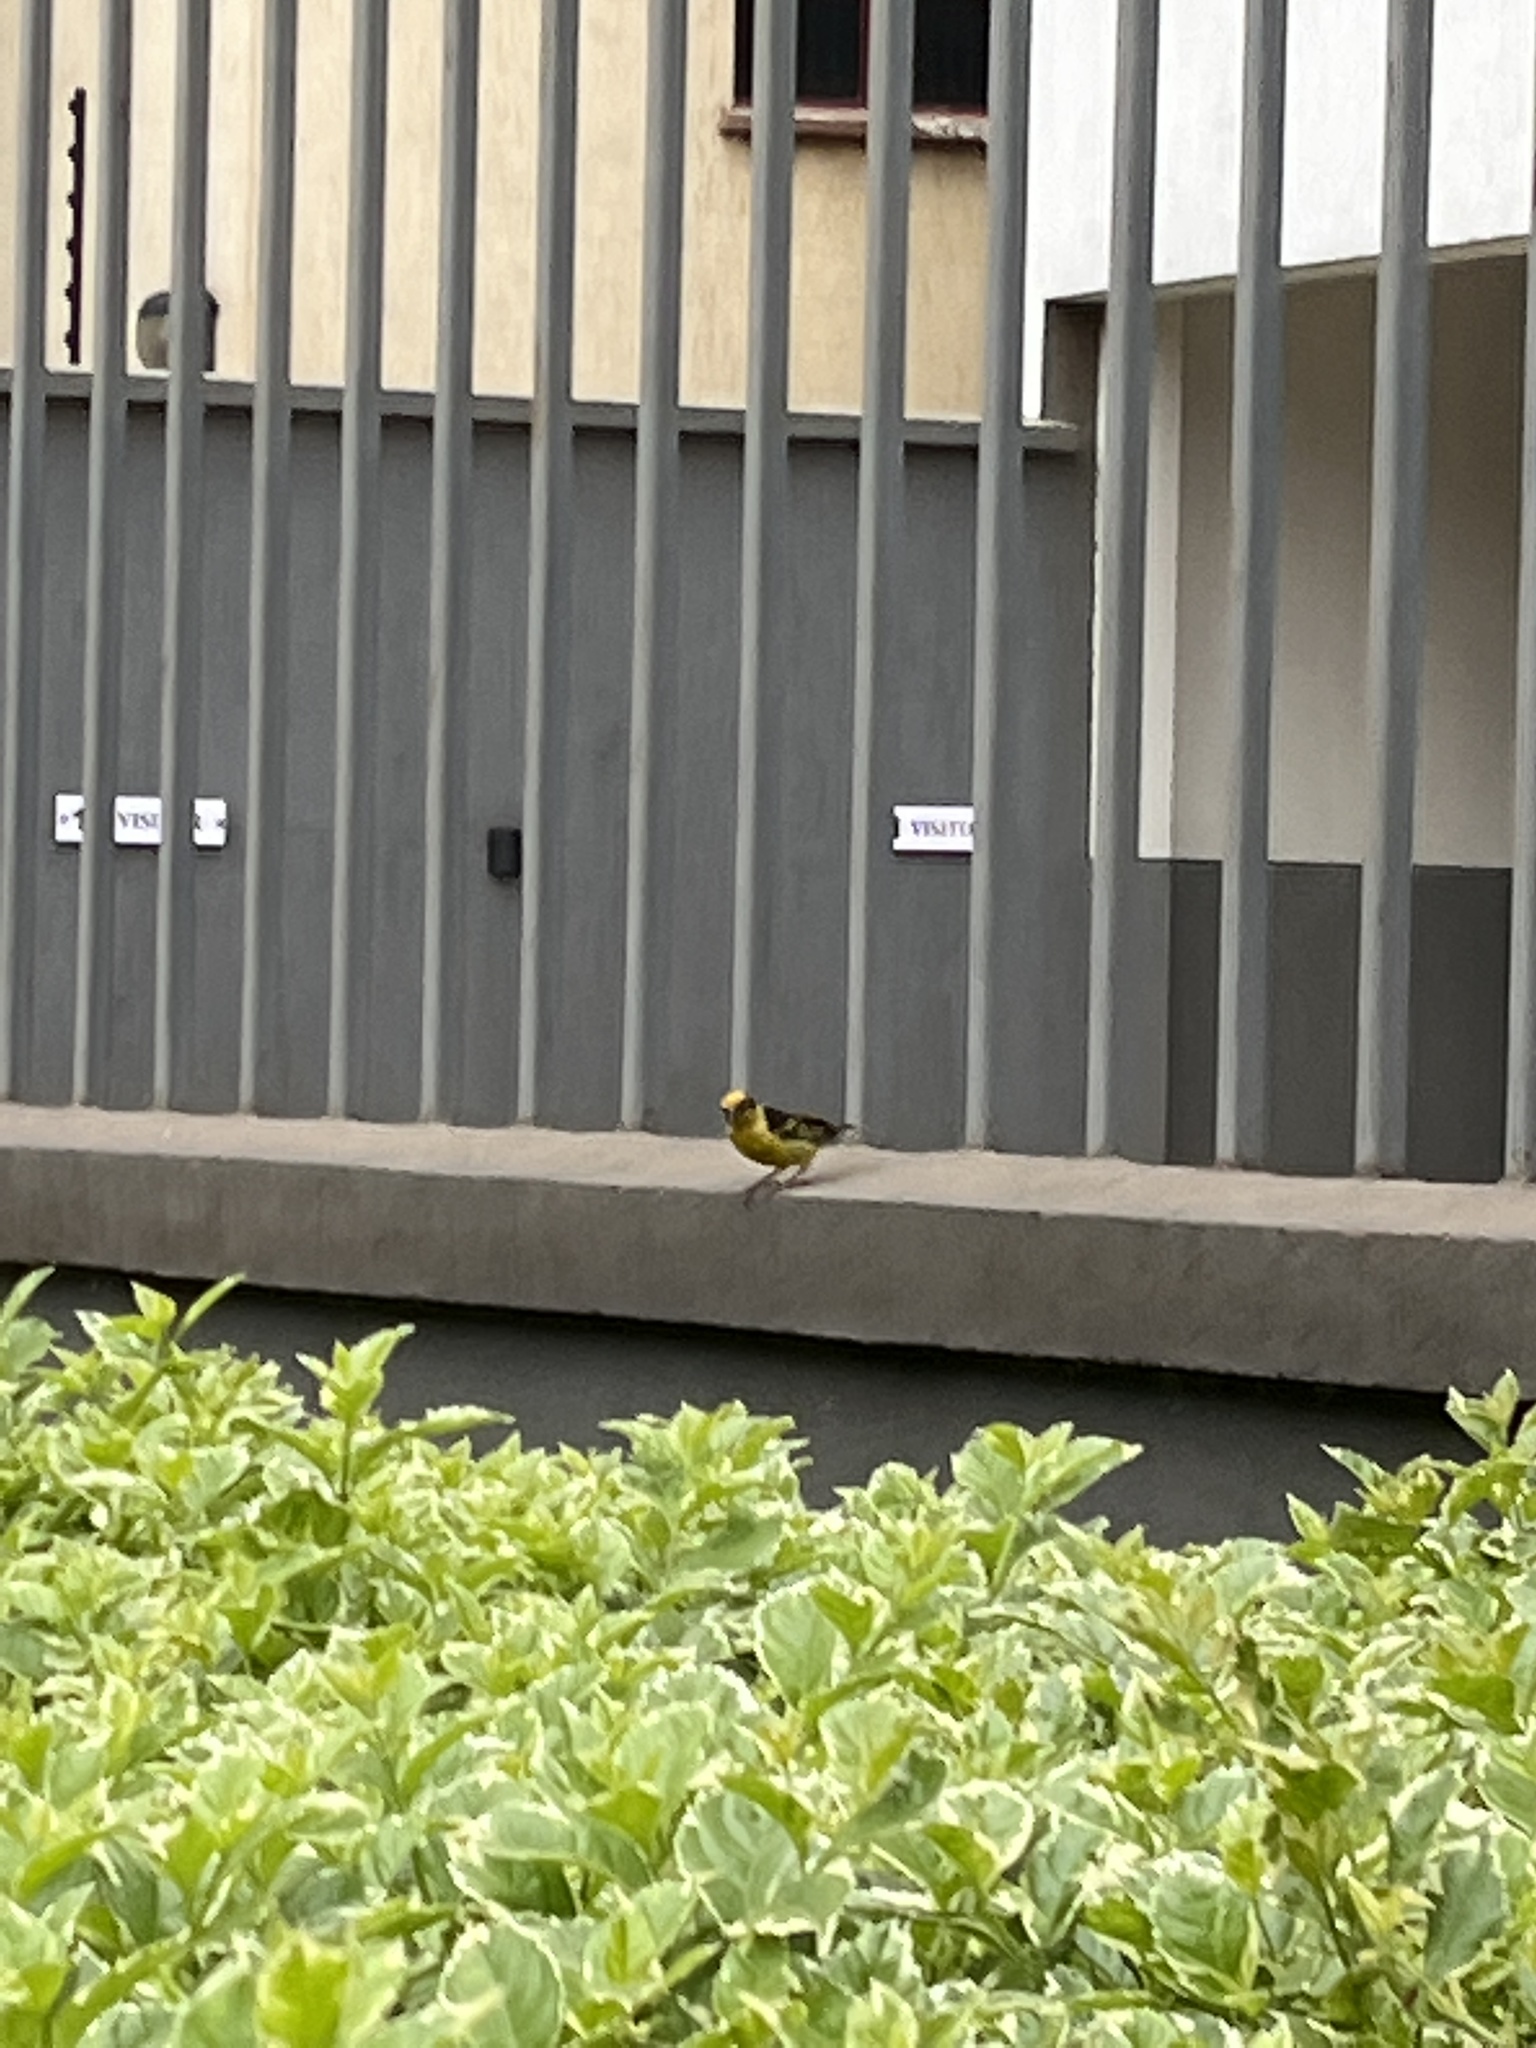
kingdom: Animalia
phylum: Chordata
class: Aves
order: Passeriformes
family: Ploceidae
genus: Ploceus
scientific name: Ploceus baglafecht
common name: Baglafecht weaver
